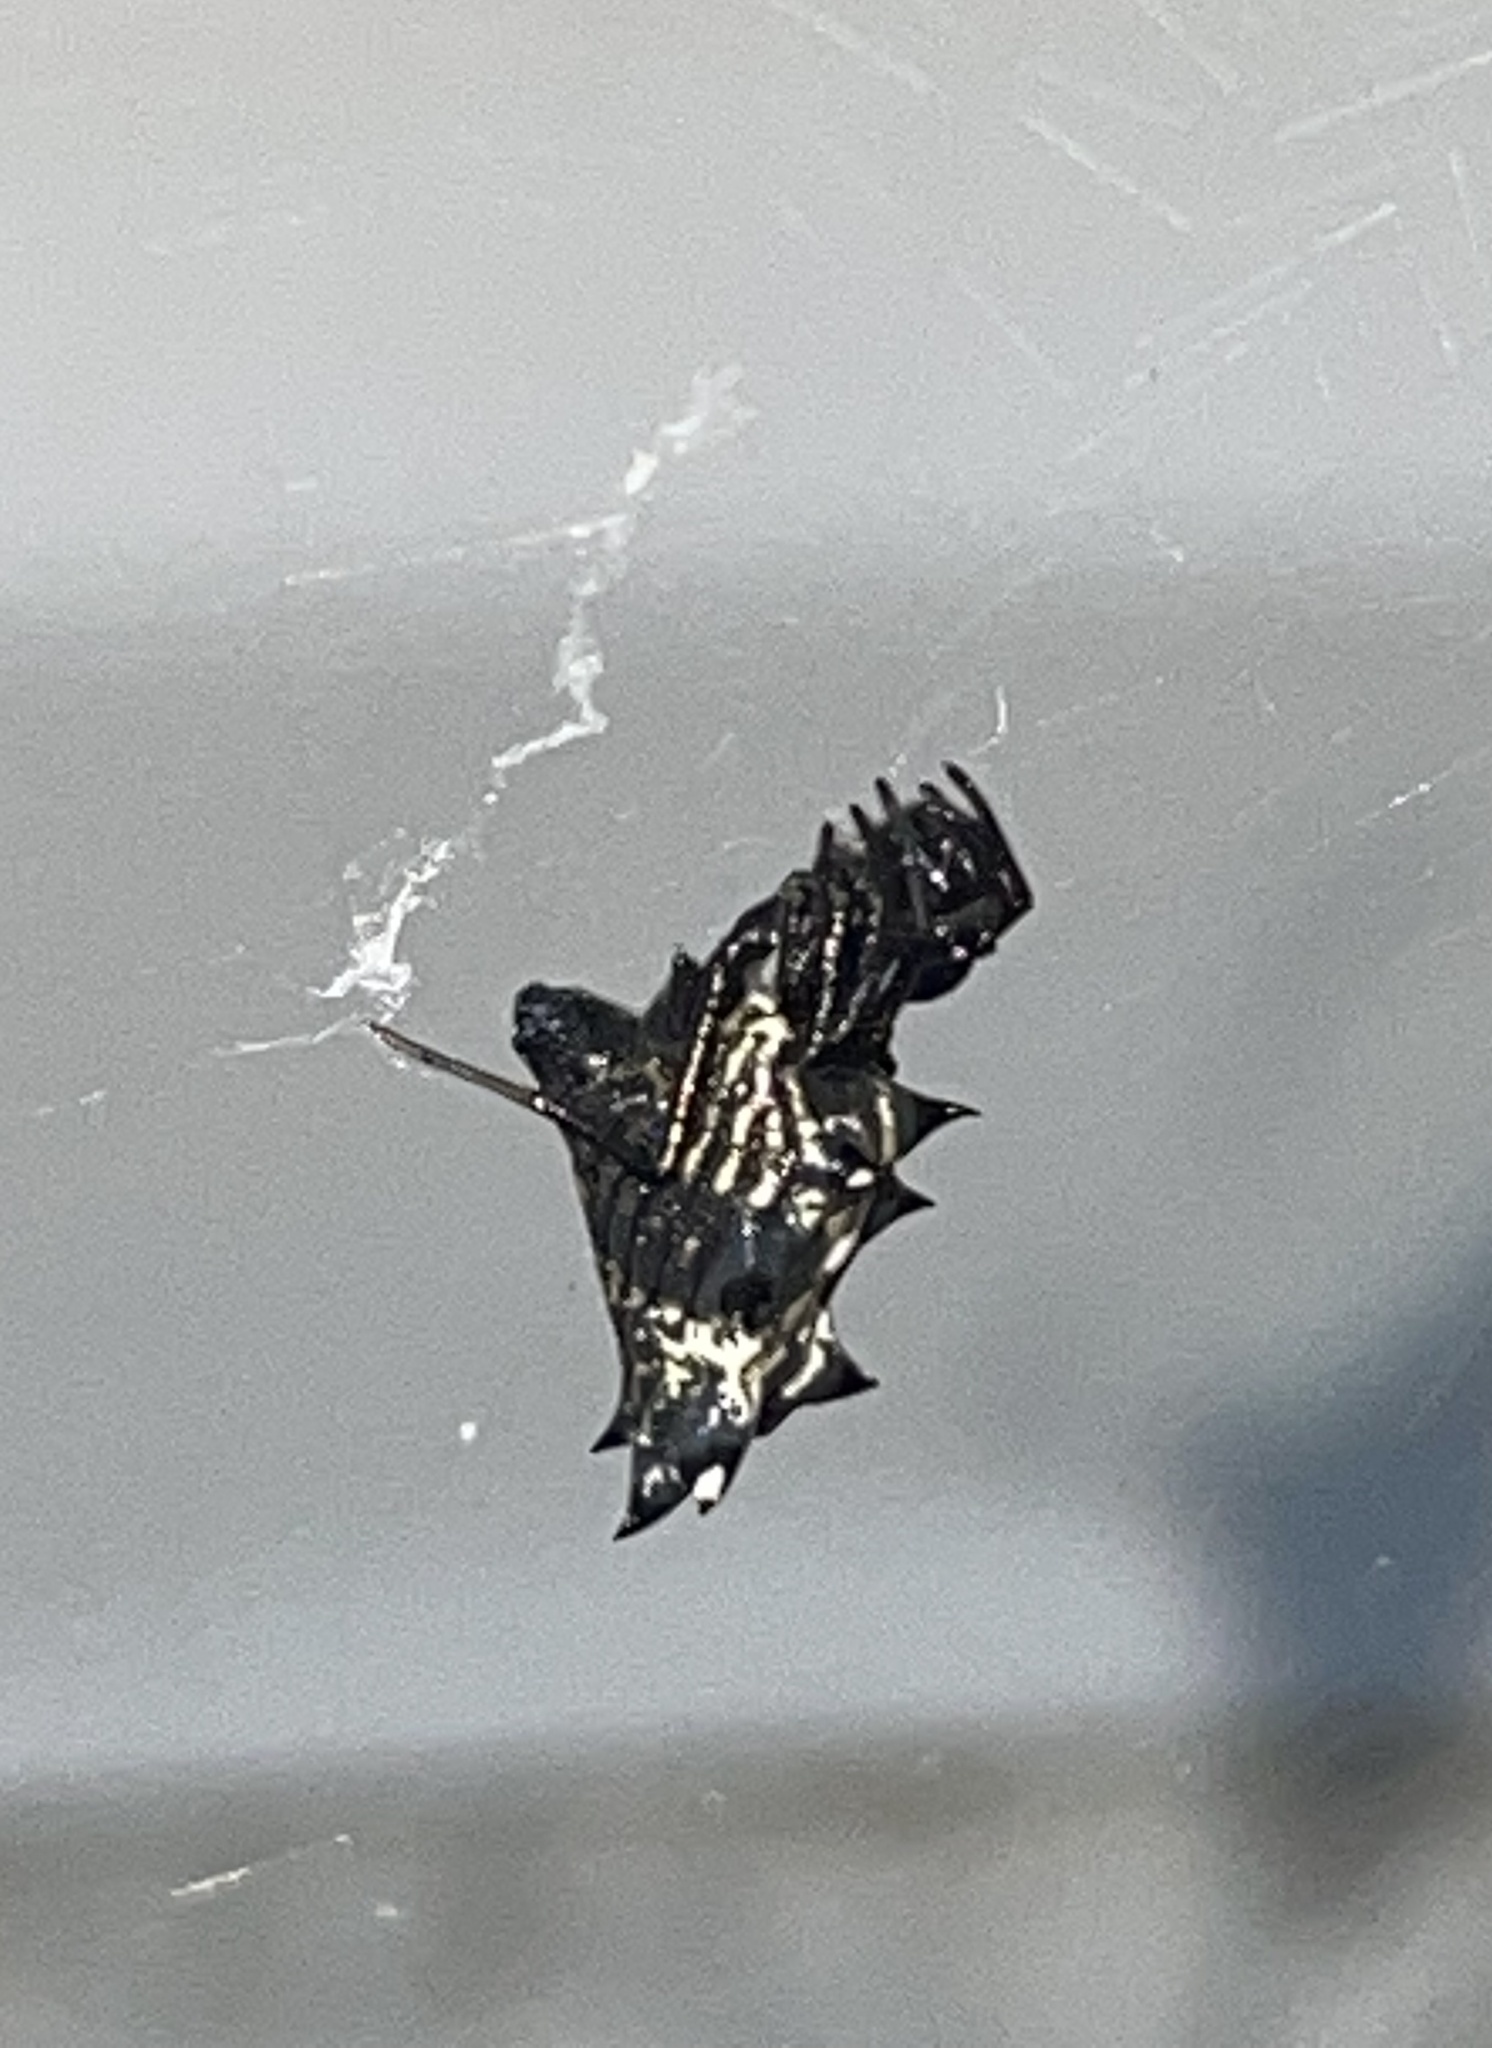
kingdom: Animalia
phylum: Arthropoda
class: Arachnida
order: Araneae
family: Araneidae
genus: Micrathena
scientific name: Micrathena gracilis
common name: Orb weavers
